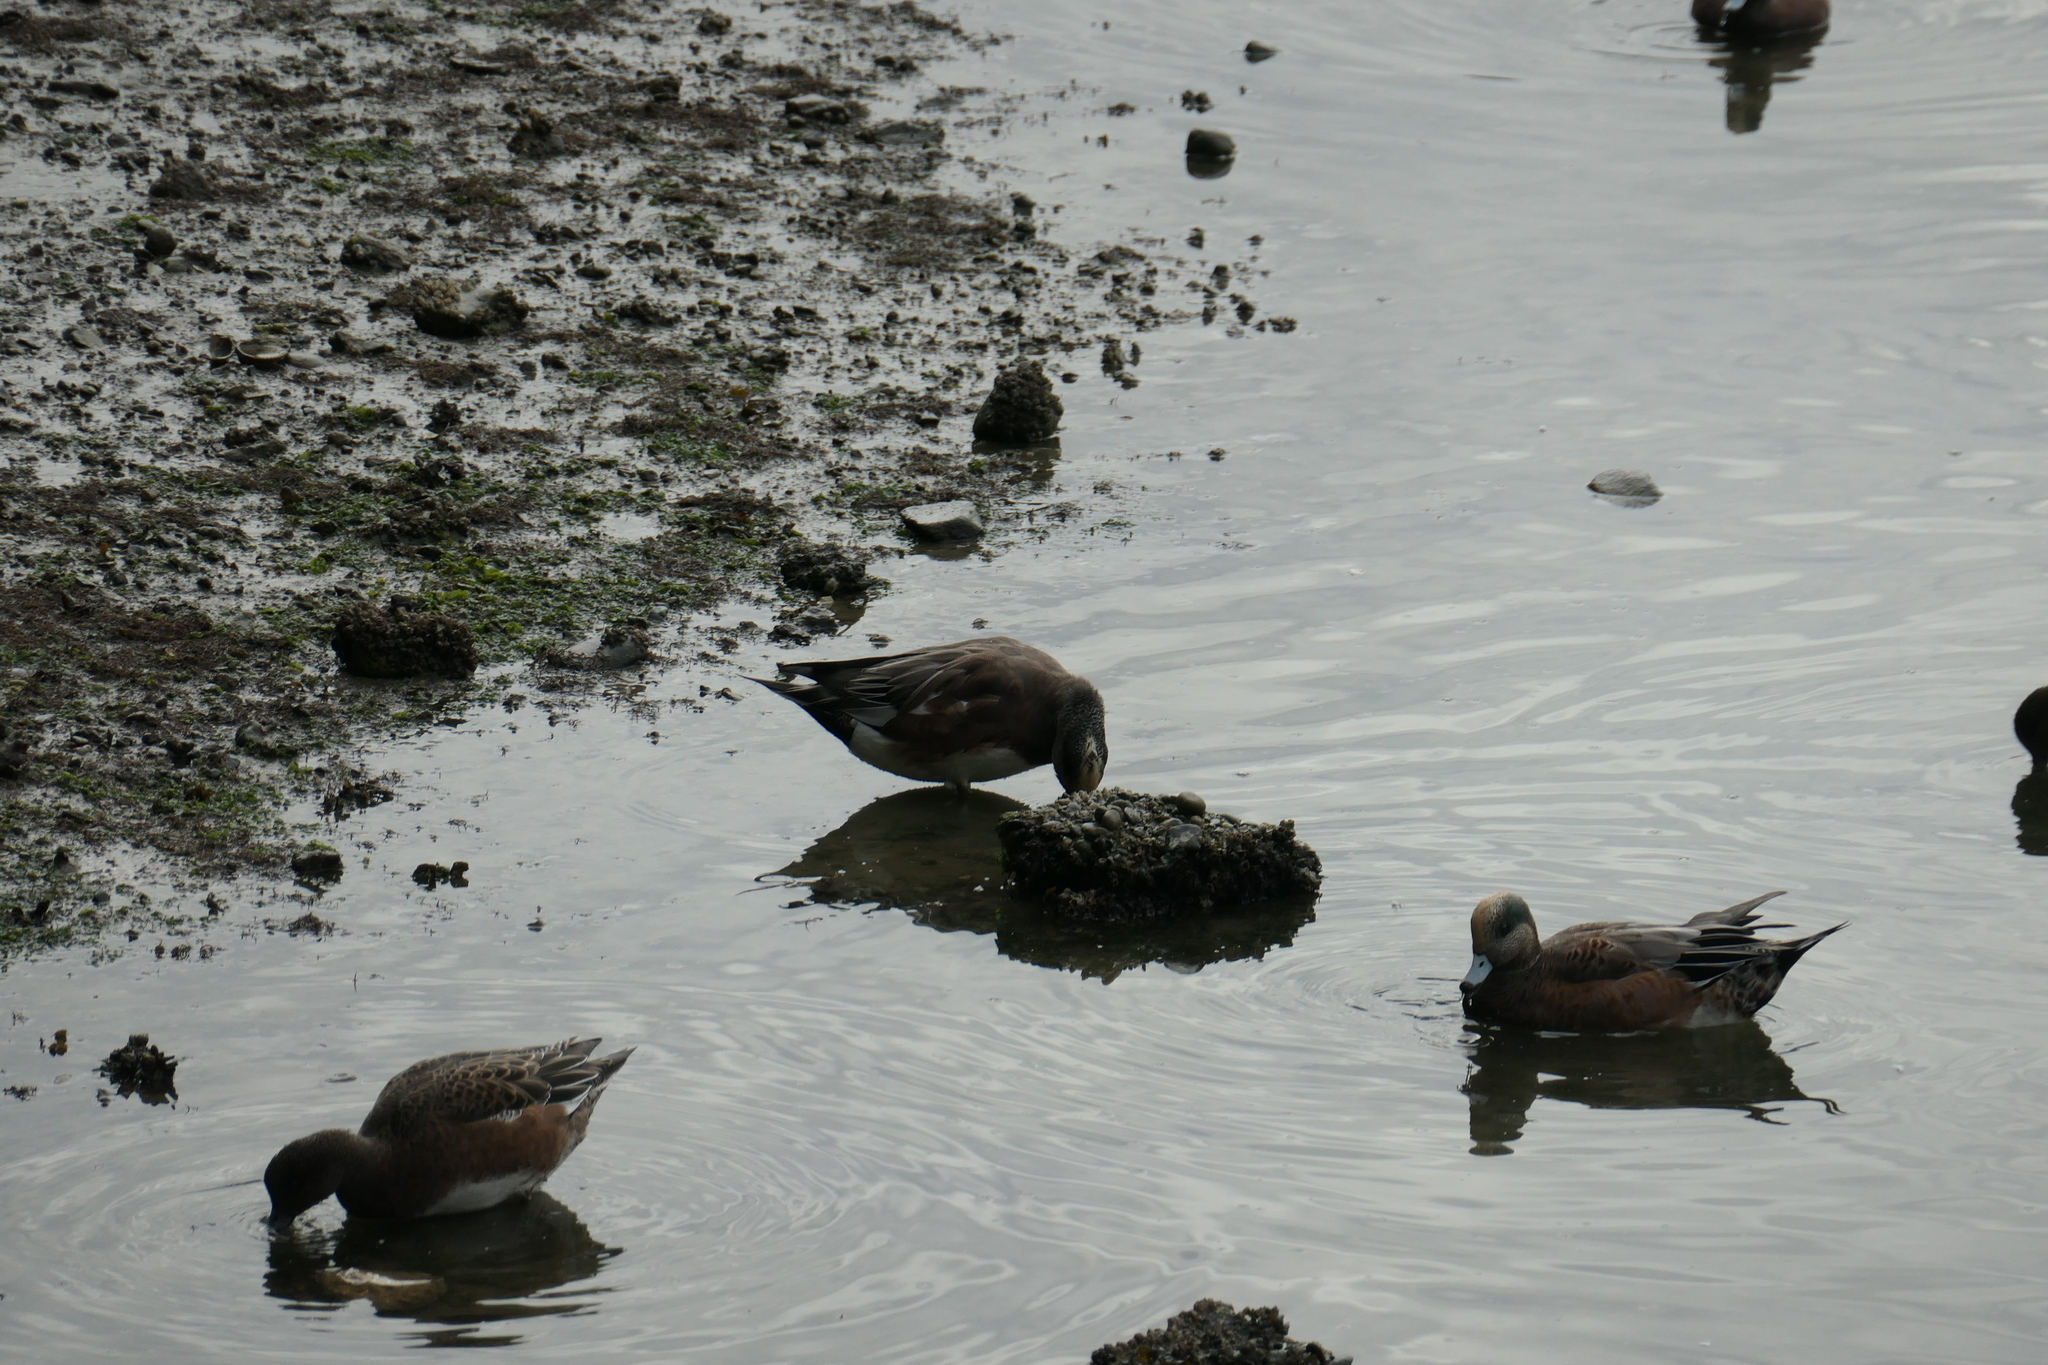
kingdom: Animalia
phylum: Chordata
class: Aves
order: Anseriformes
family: Anatidae
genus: Mareca
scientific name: Mareca americana
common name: American wigeon
